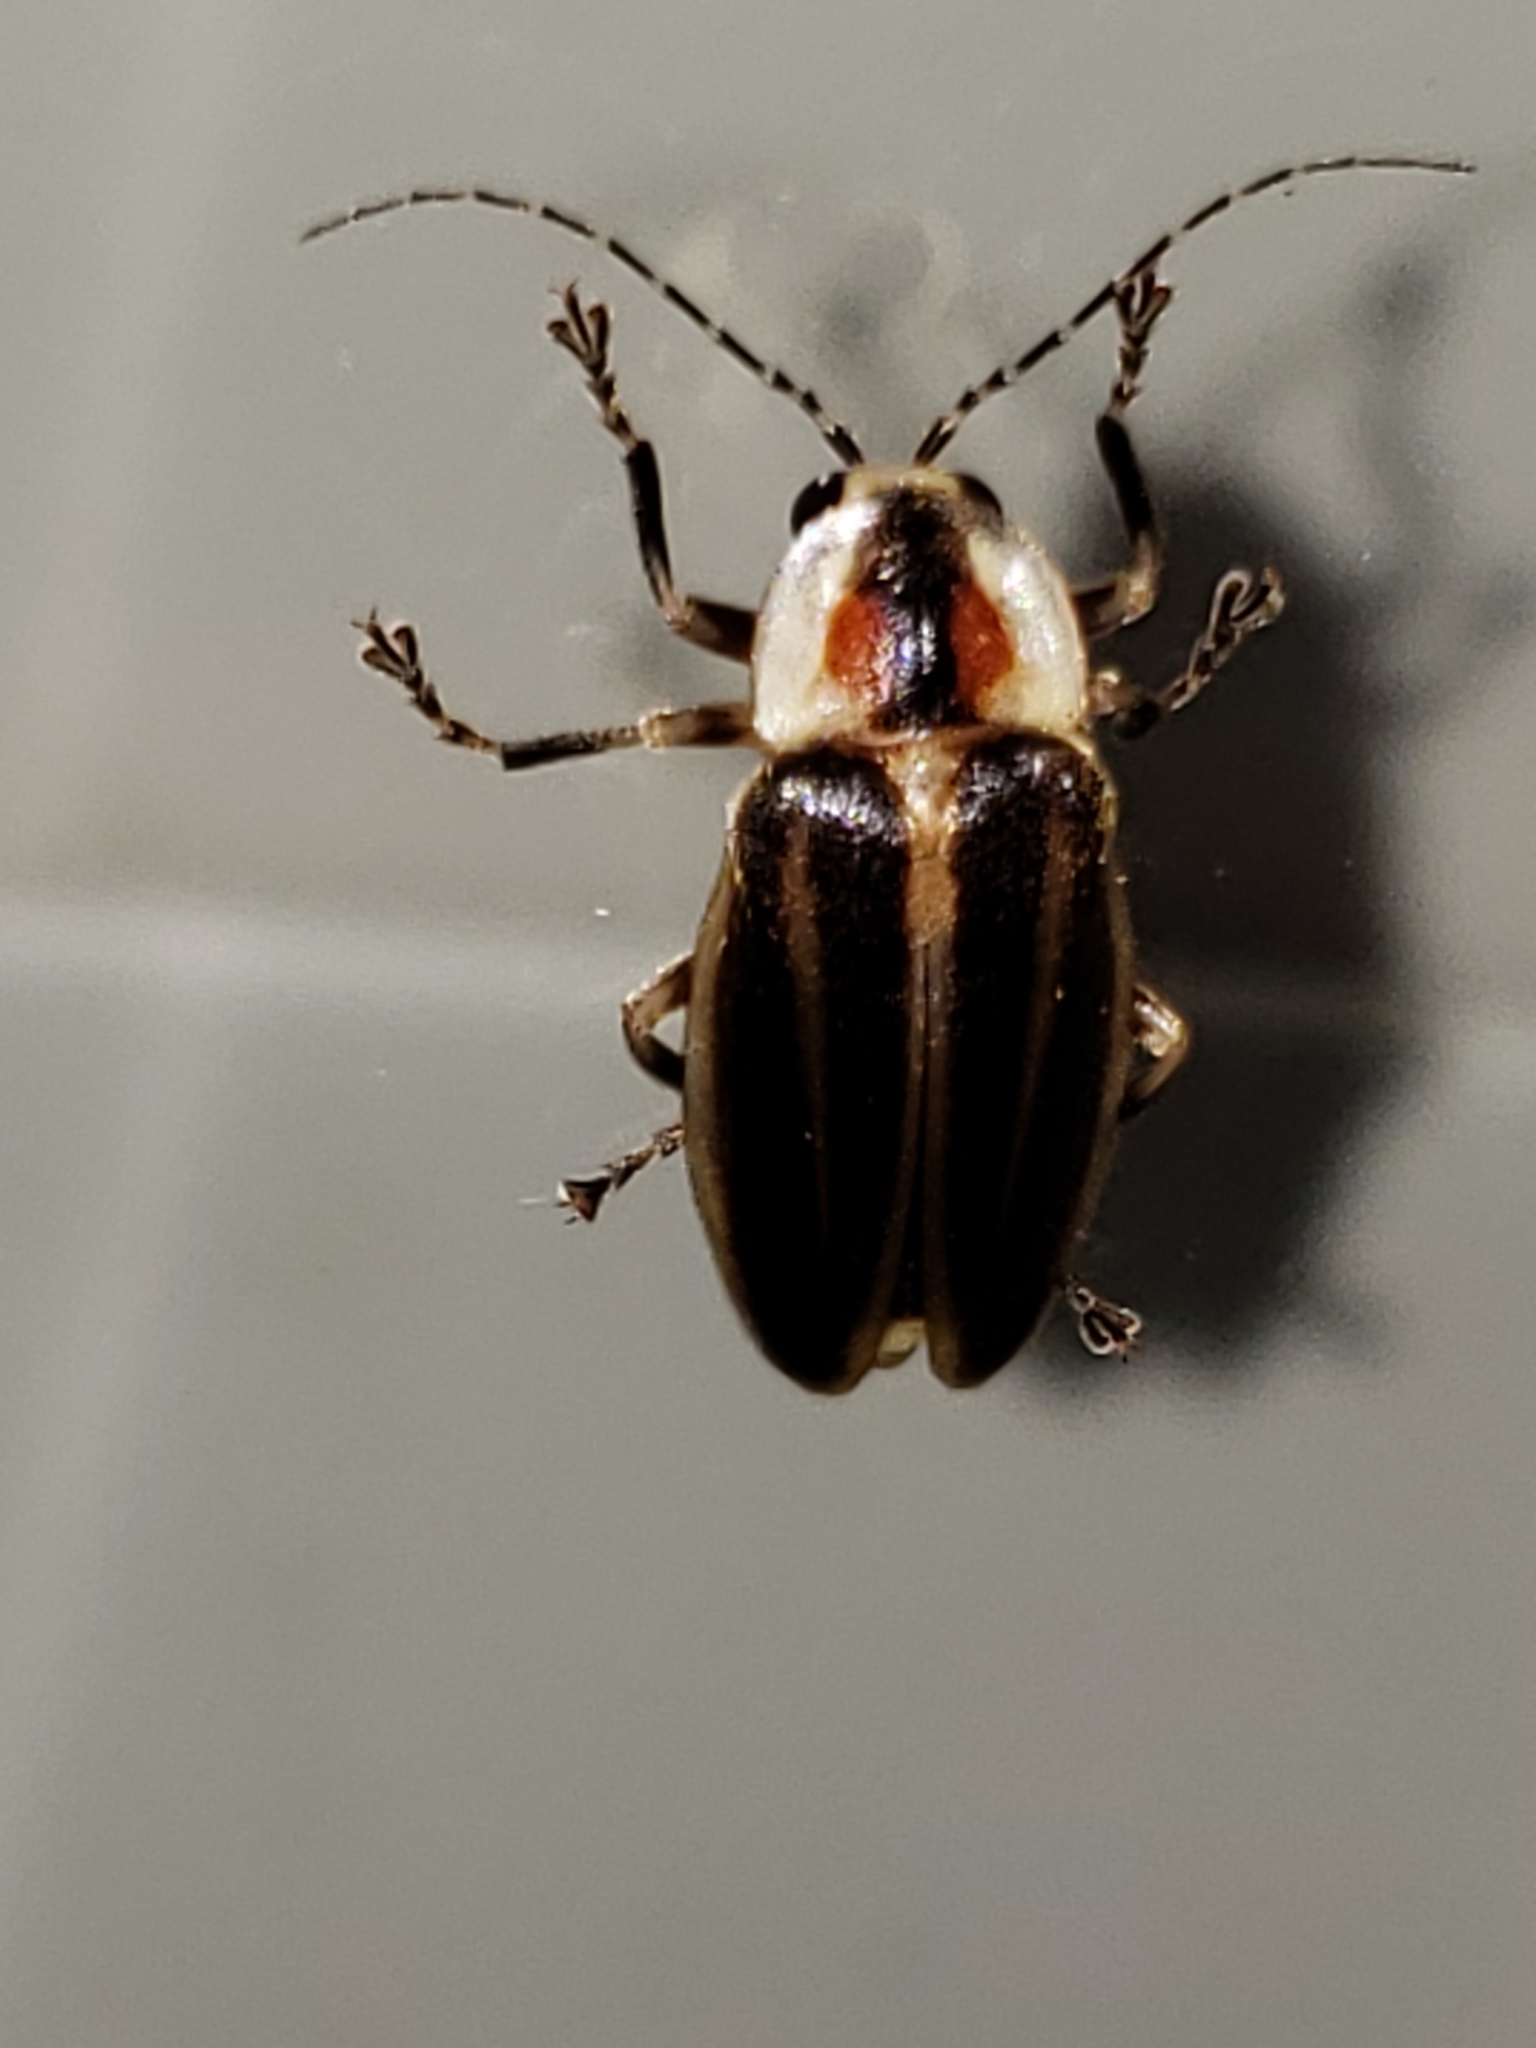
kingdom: Animalia
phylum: Arthropoda
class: Insecta
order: Coleoptera
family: Lampyridae
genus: Photuris
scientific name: Photuris
